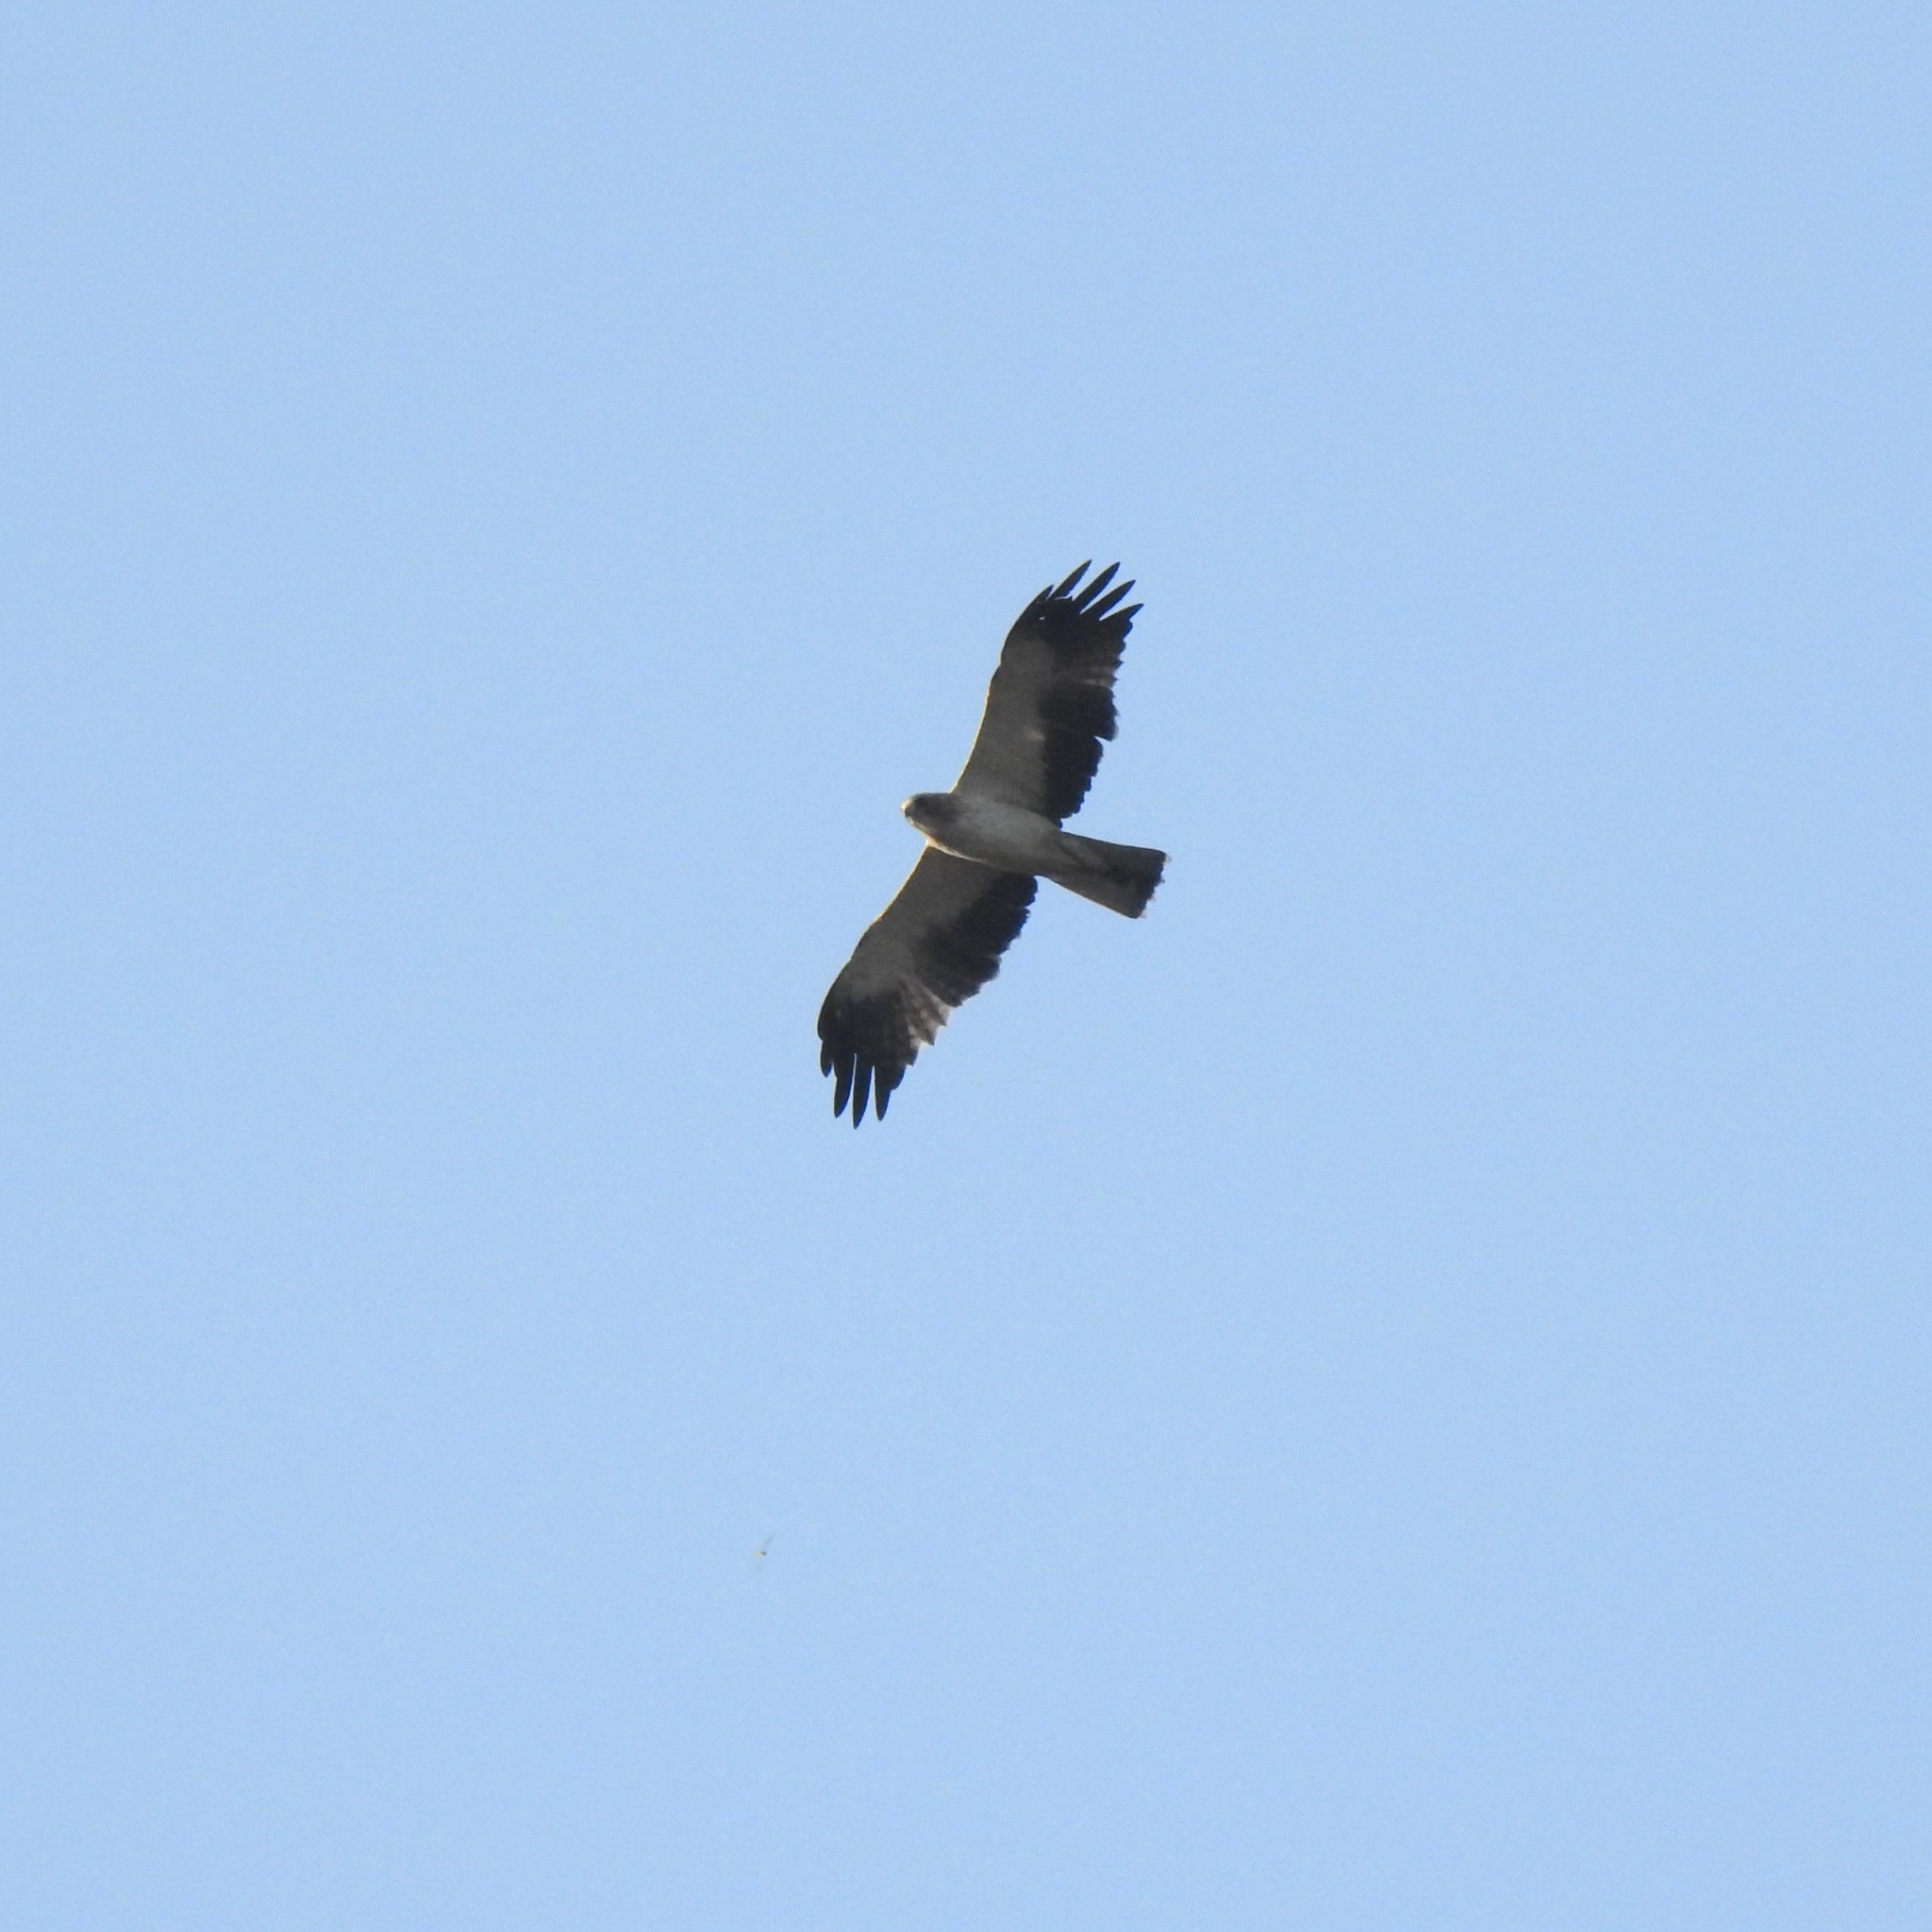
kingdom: Animalia
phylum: Chordata
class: Aves
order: Accipitriformes
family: Accipitridae
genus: Hieraaetus
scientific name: Hieraaetus pennatus
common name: Booted eagle
